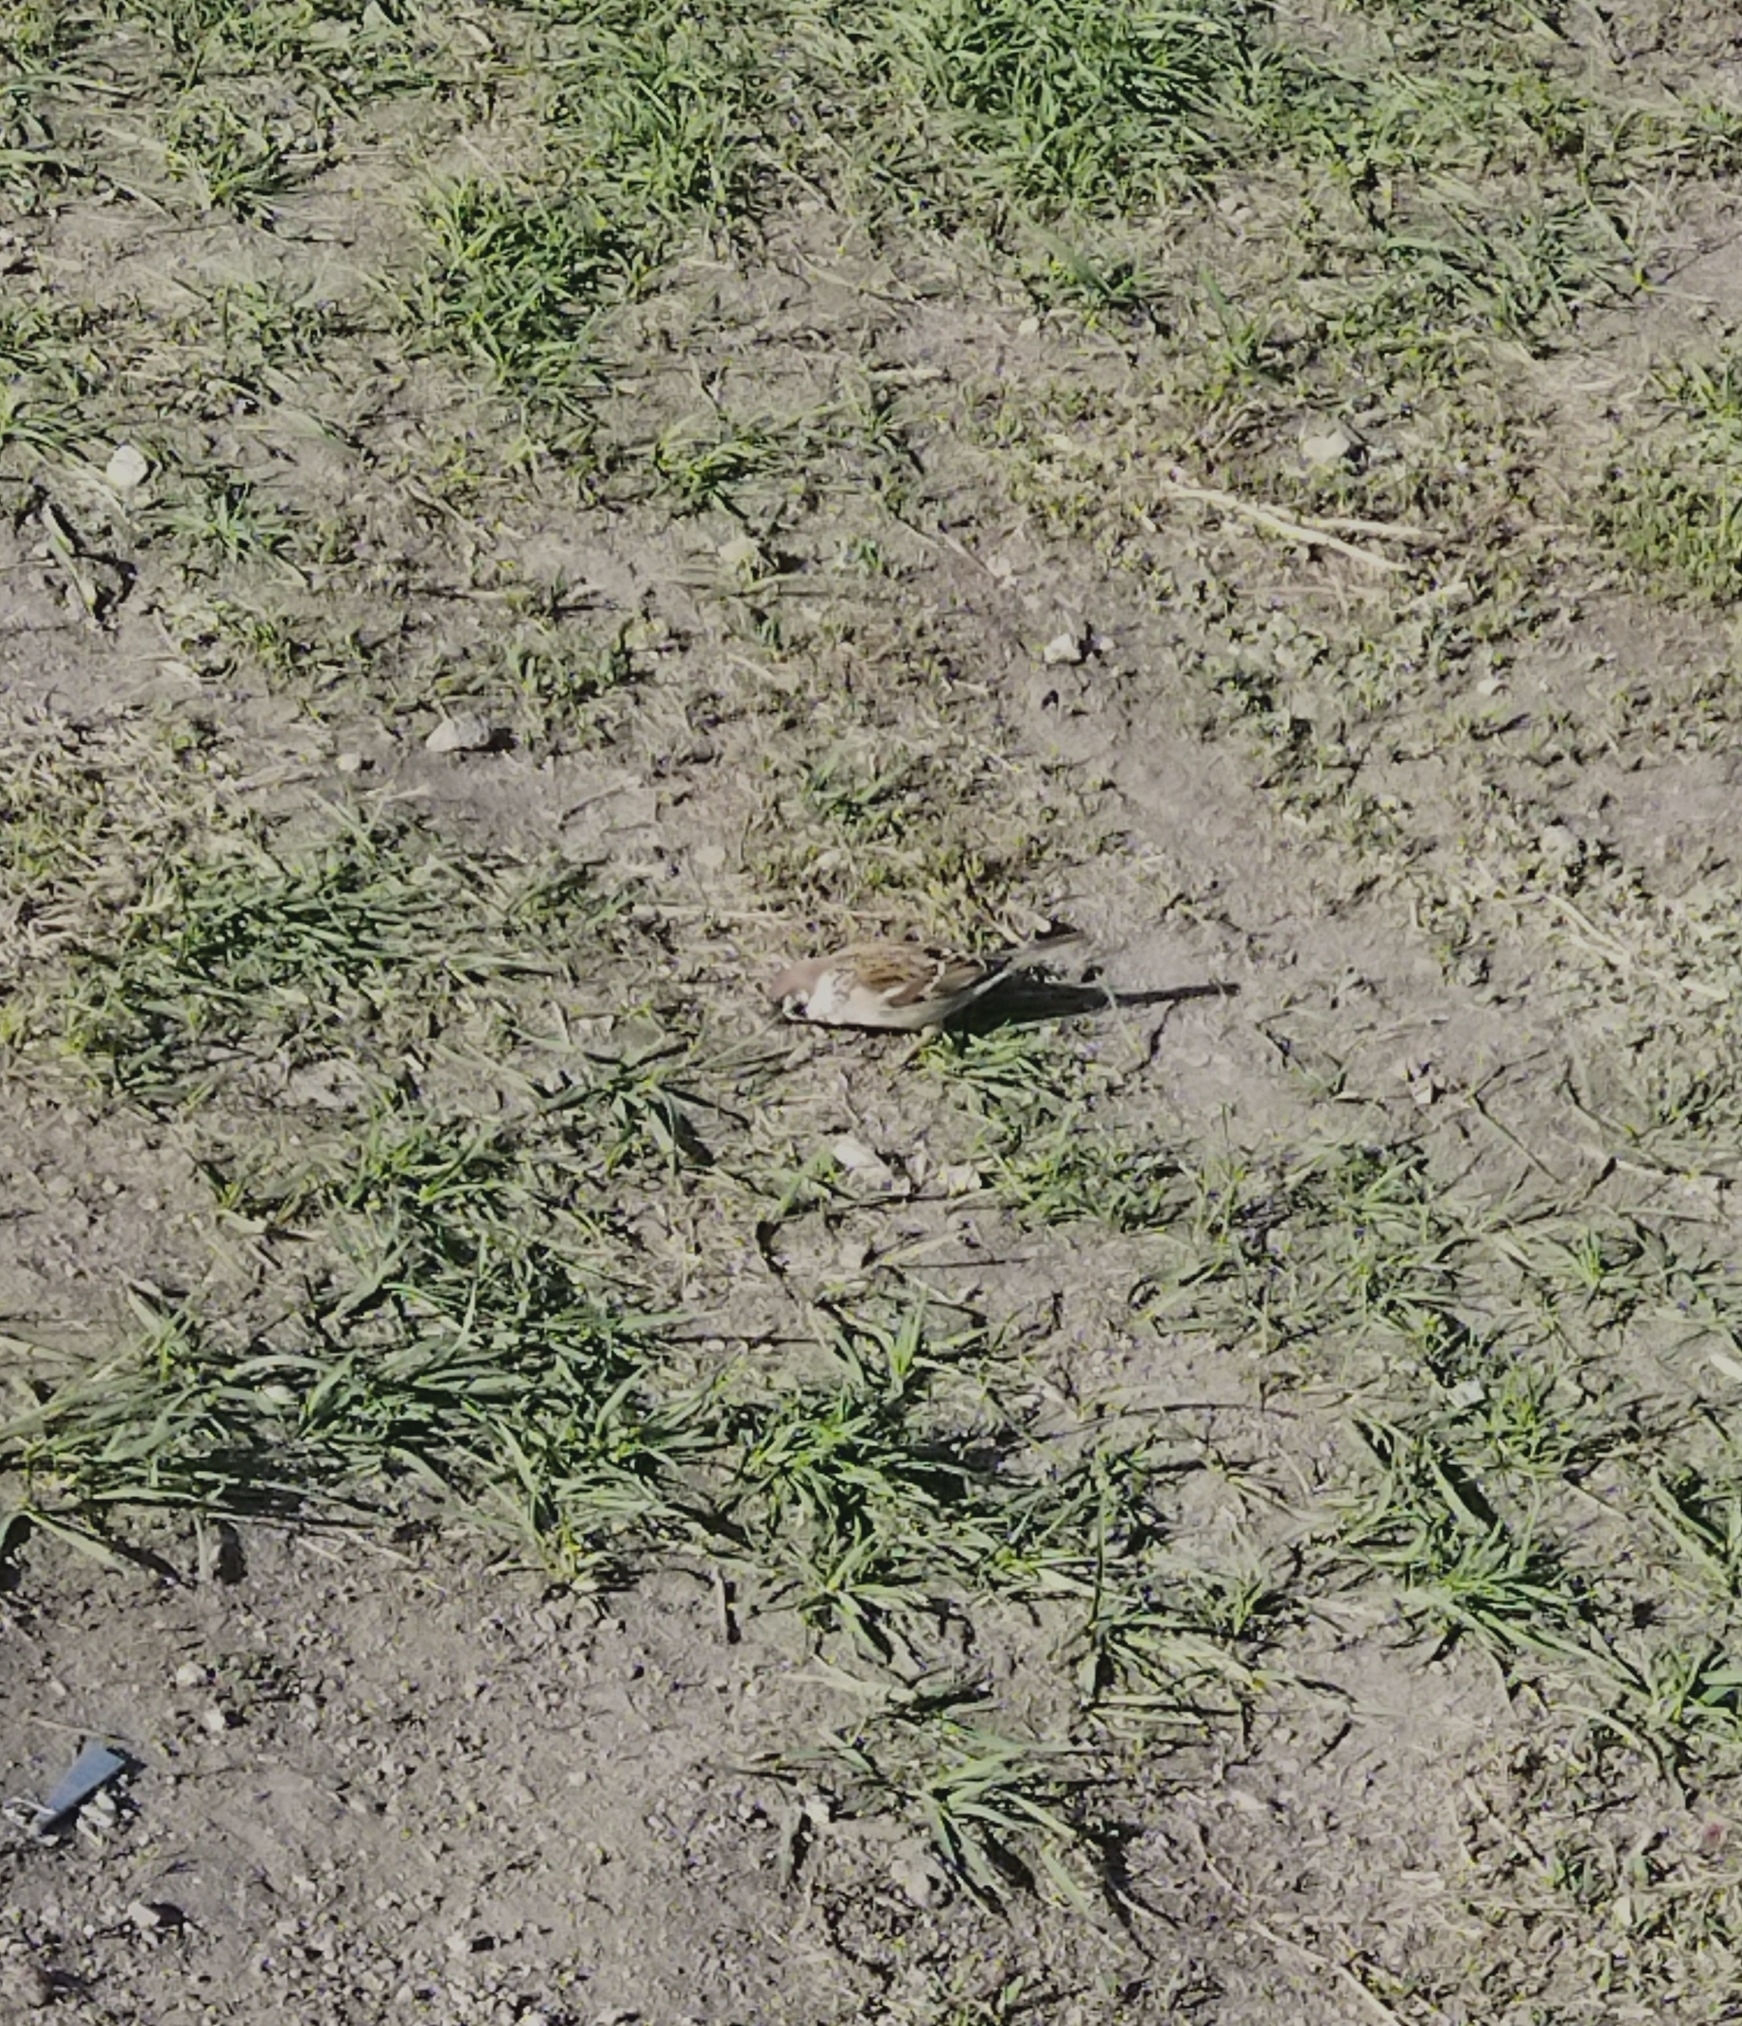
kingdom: Animalia
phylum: Chordata
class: Aves
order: Passeriformes
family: Passeridae
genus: Passer
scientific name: Passer montanus
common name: Eurasian tree sparrow
